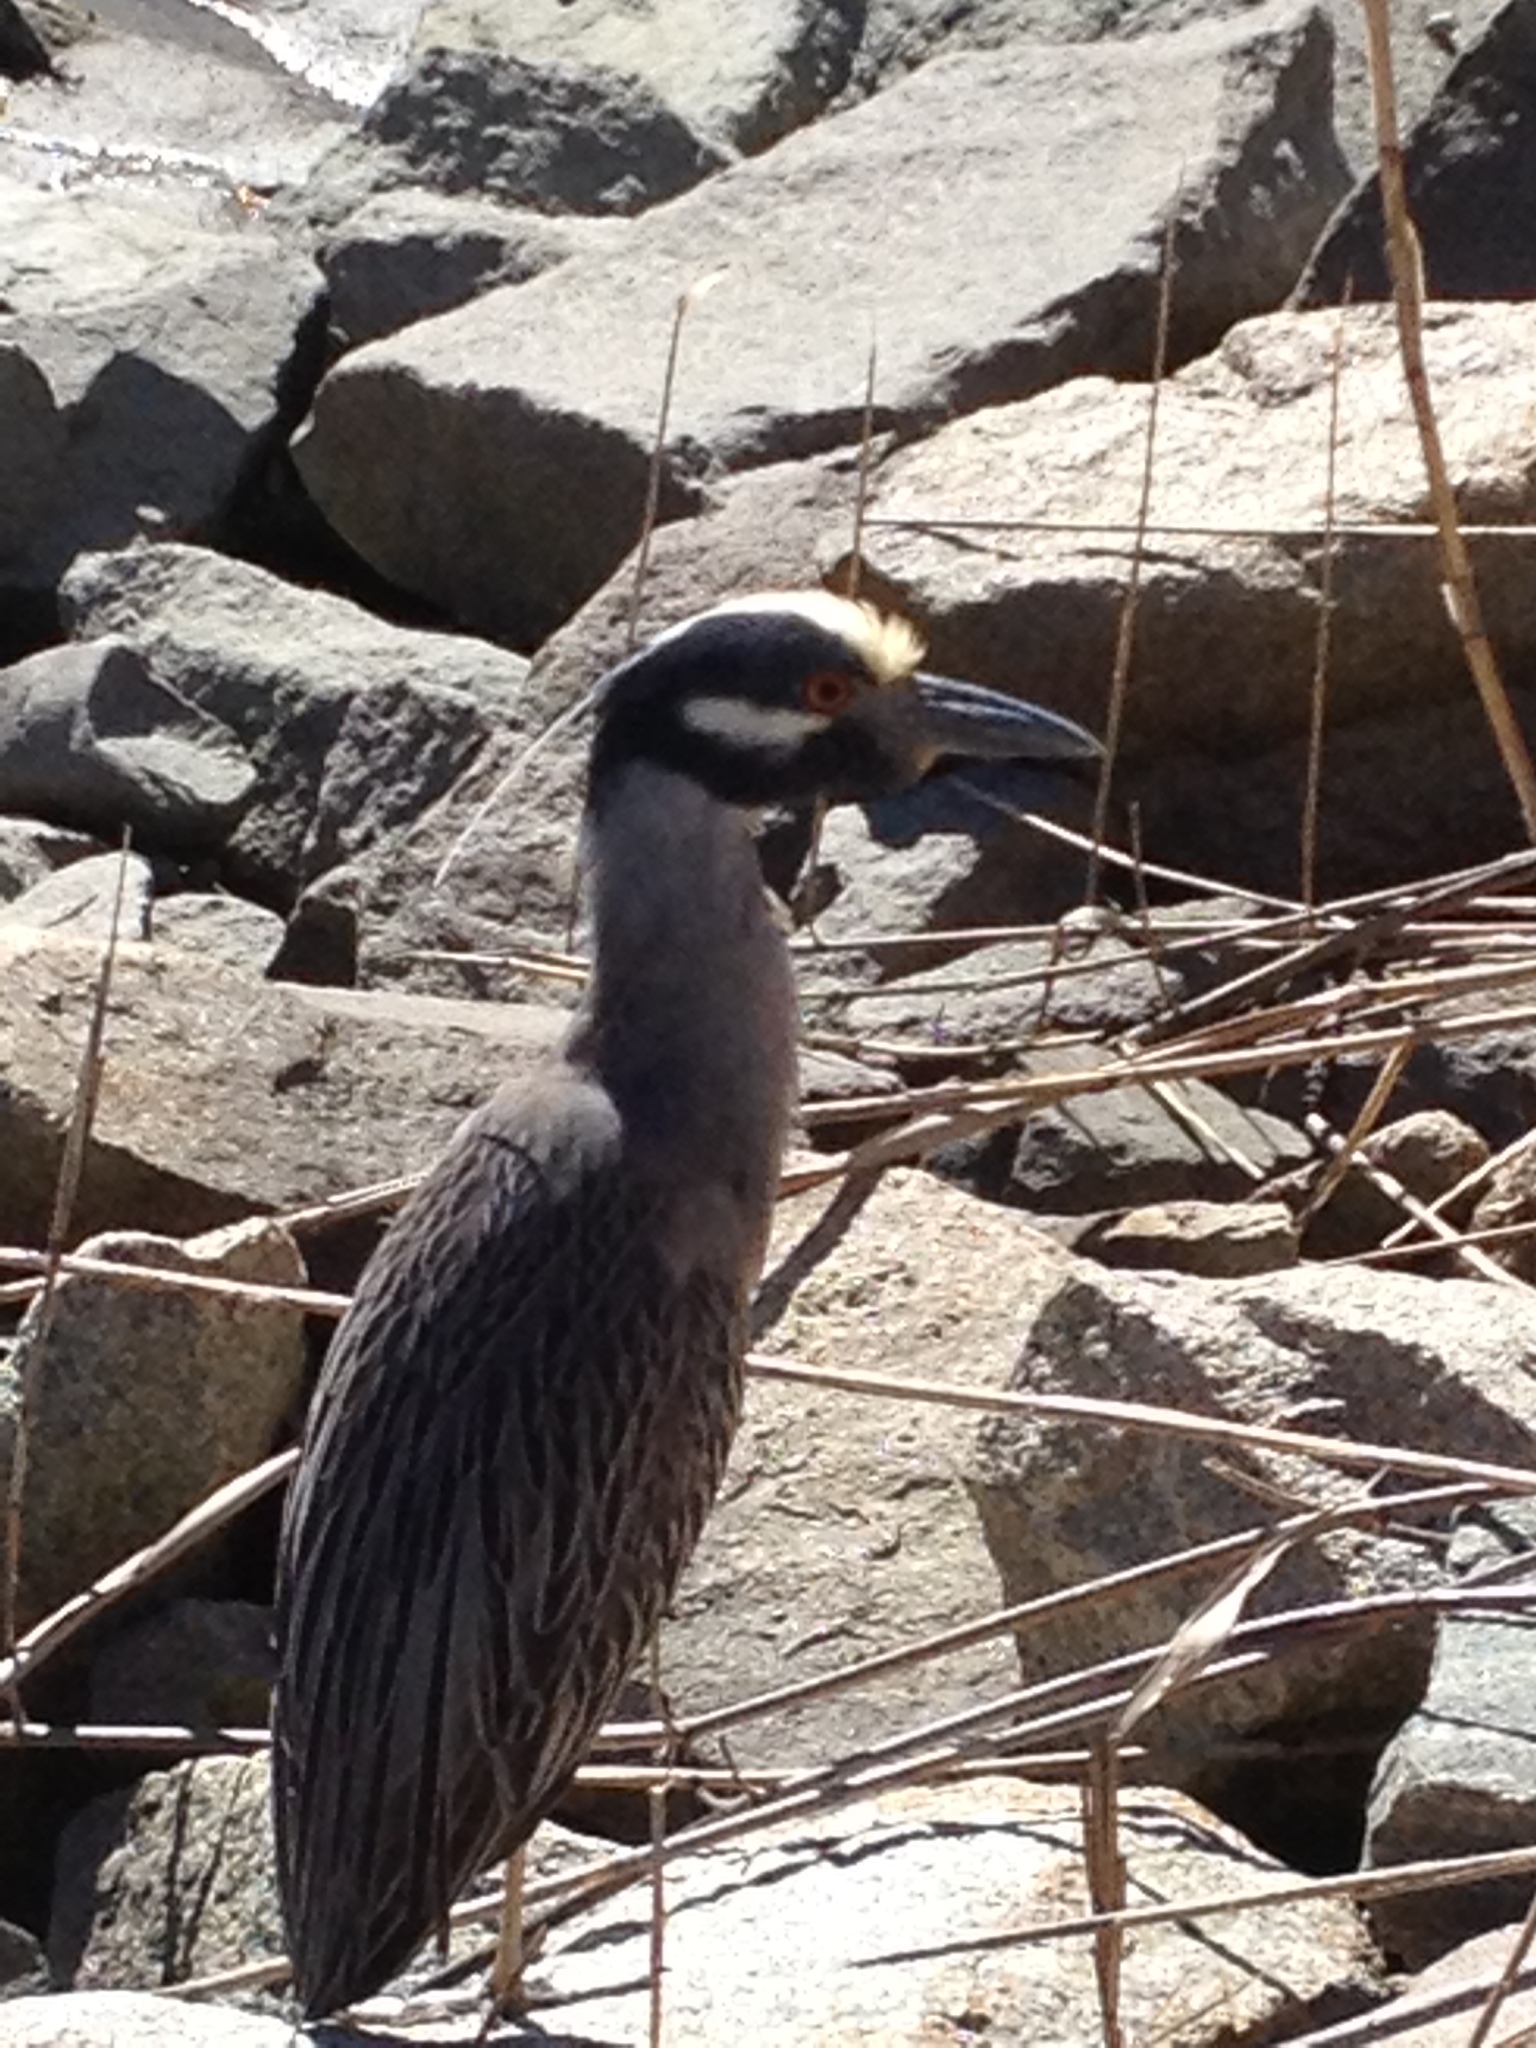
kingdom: Animalia
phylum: Chordata
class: Aves
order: Pelecaniformes
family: Ardeidae
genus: Nyctanassa
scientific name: Nyctanassa violacea
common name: Yellow-crowned night heron
